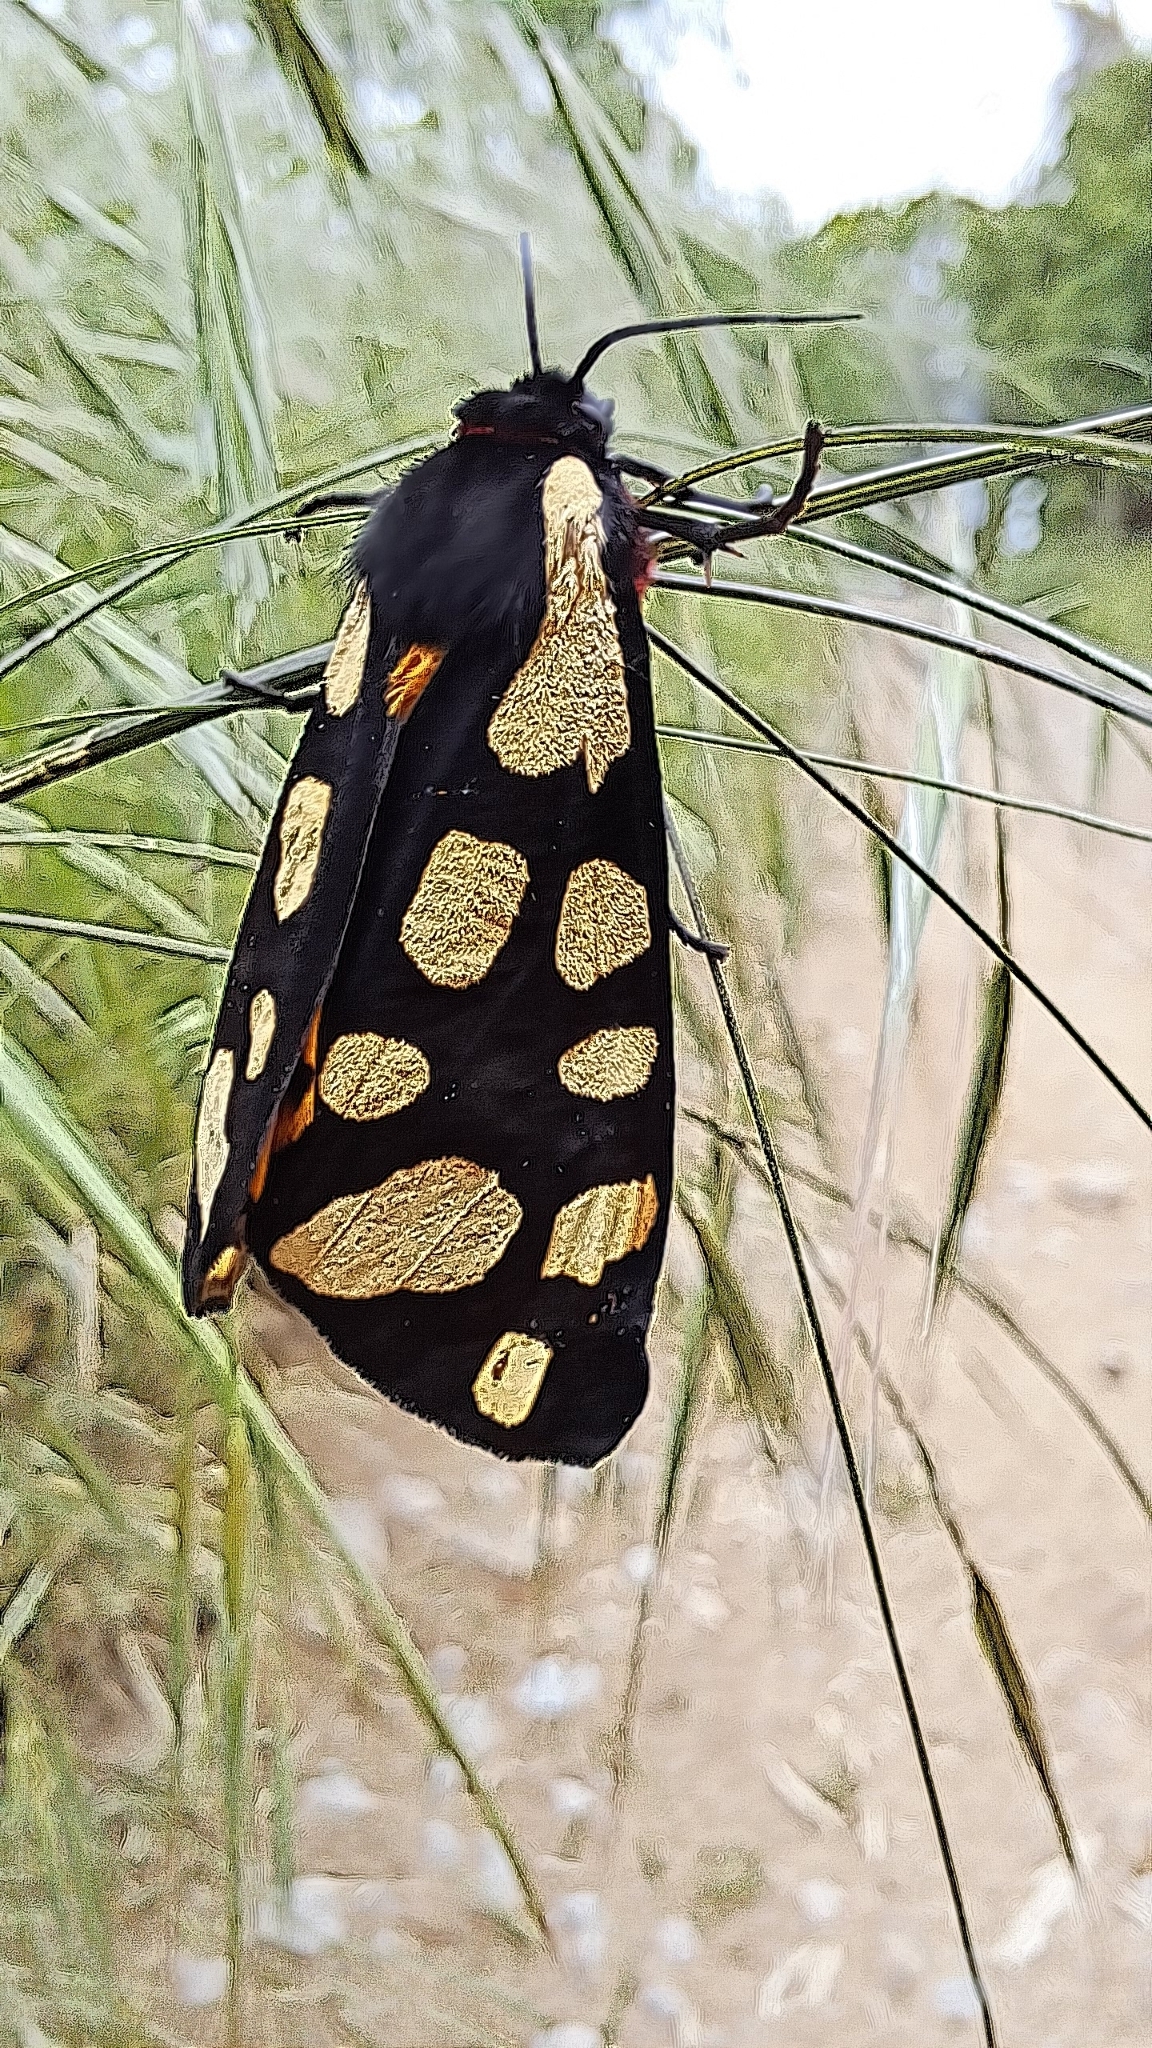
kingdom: Animalia
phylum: Arthropoda
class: Insecta
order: Lepidoptera
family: Erebidae
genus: Epicallia
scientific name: Epicallia villica
